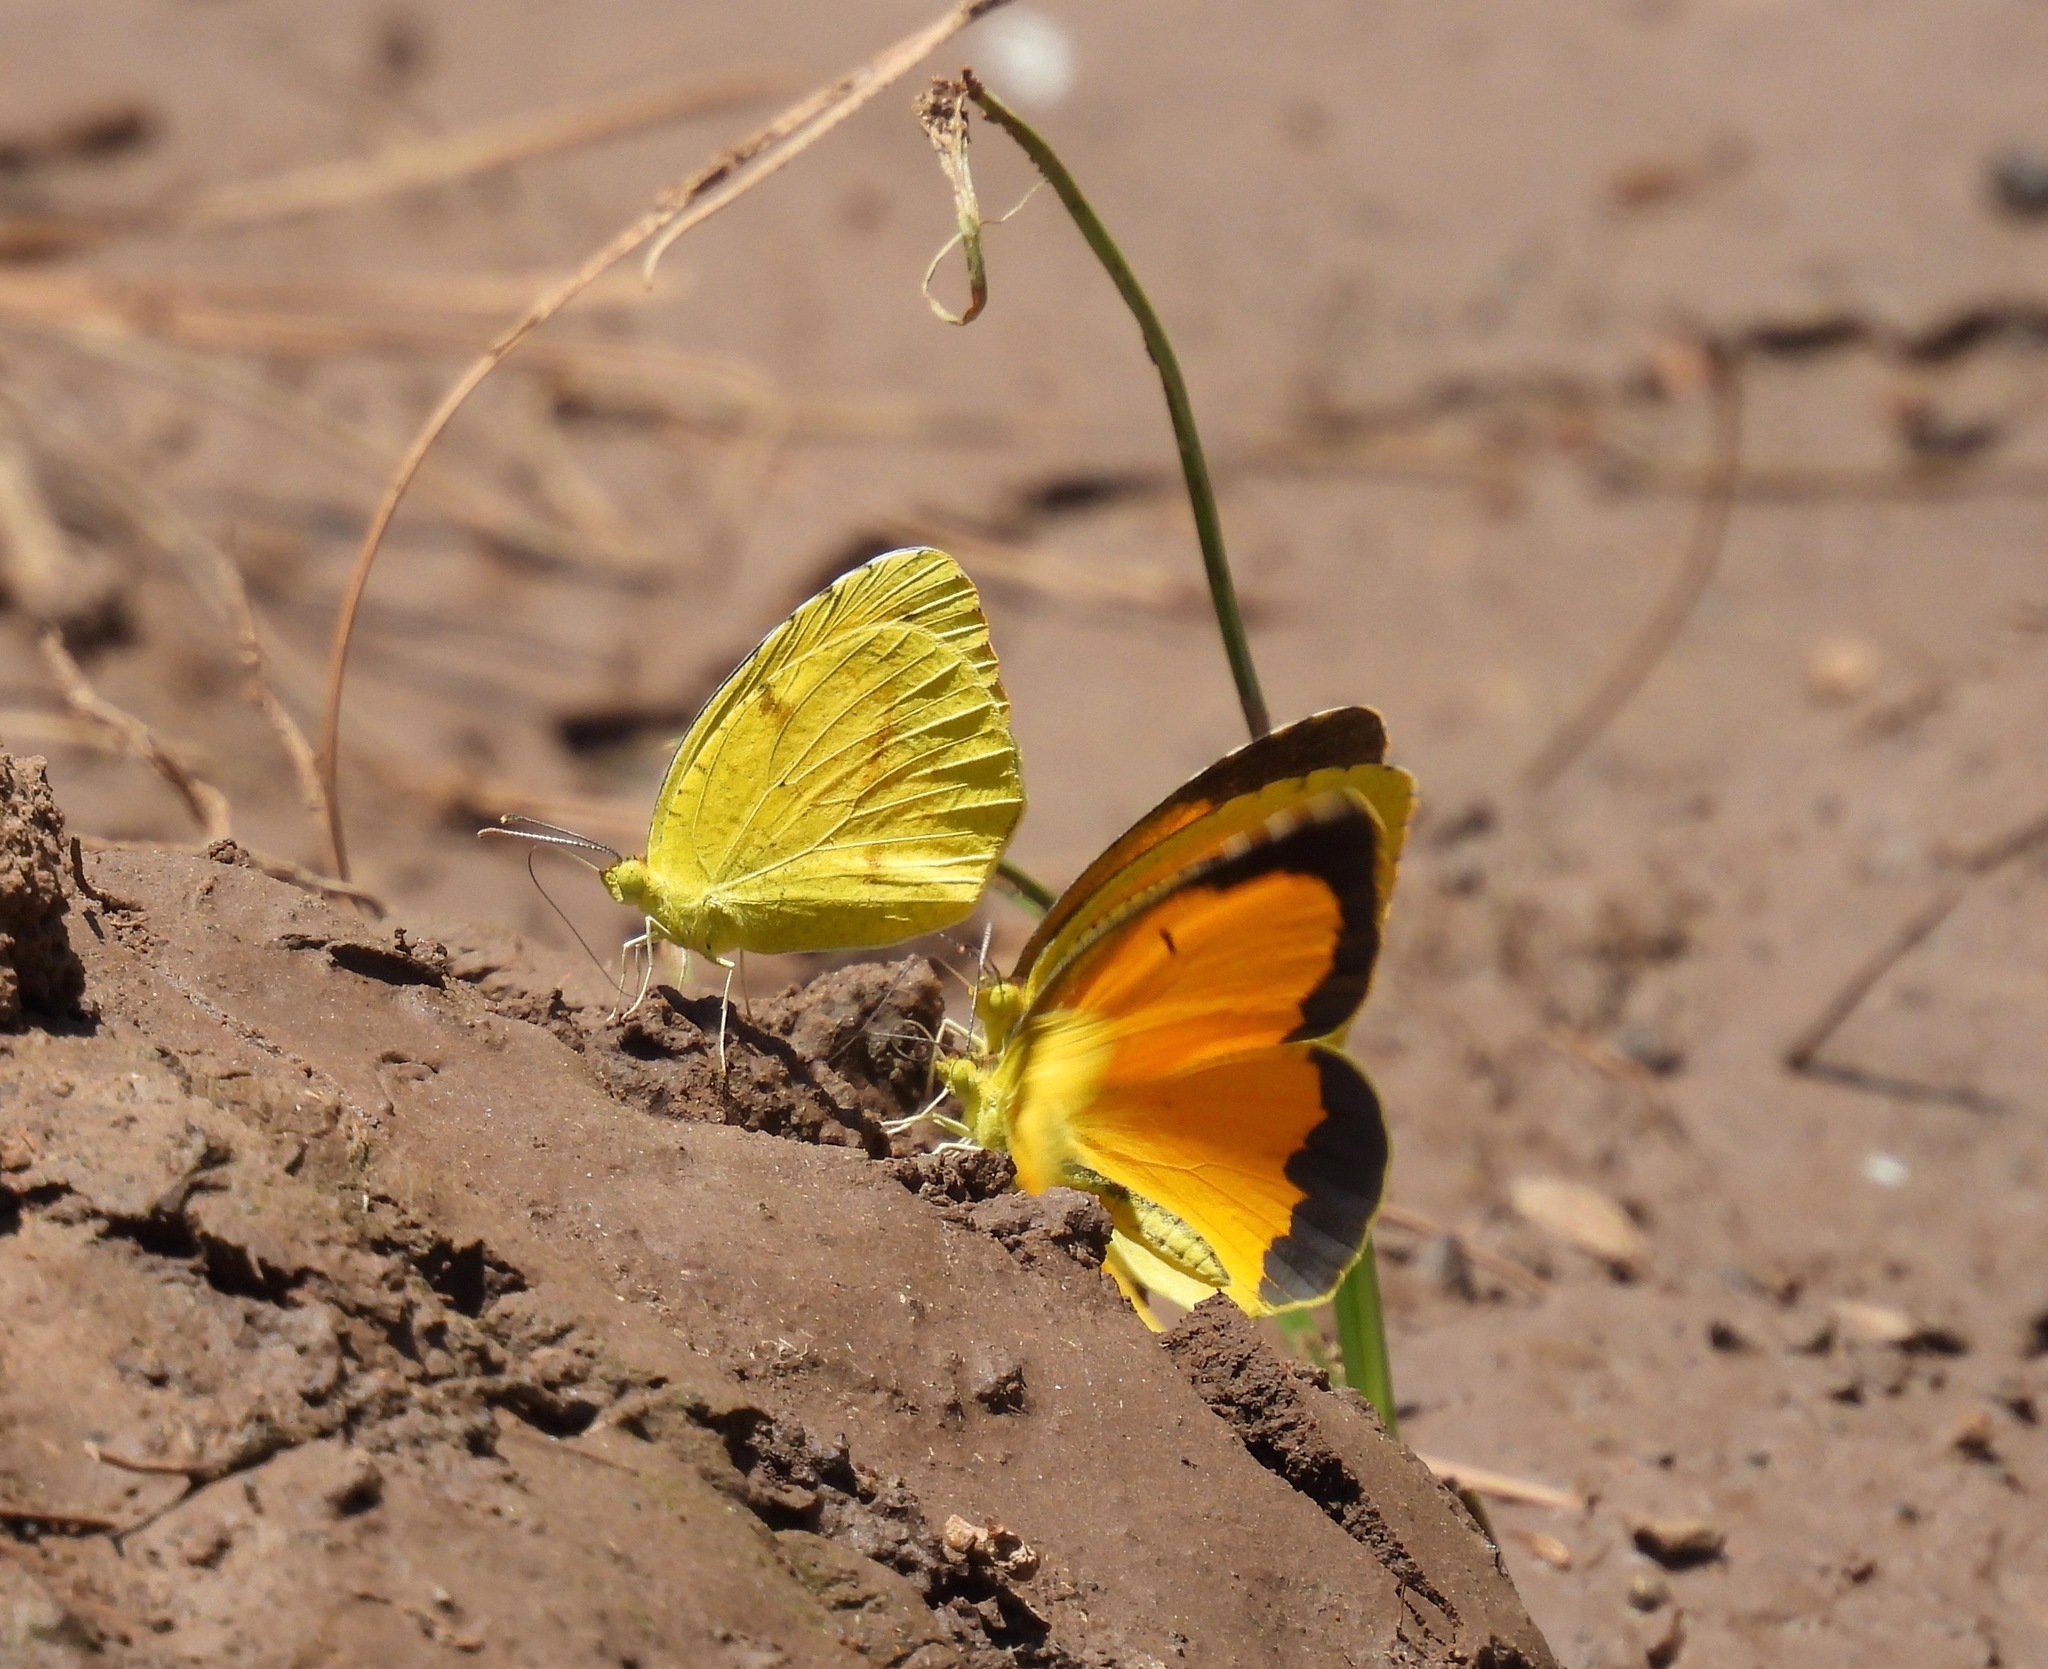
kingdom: Animalia
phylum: Arthropoda
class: Insecta
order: Lepidoptera
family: Pieridae
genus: Abaeis
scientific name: Abaeis nicippe
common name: Sleepy orange
